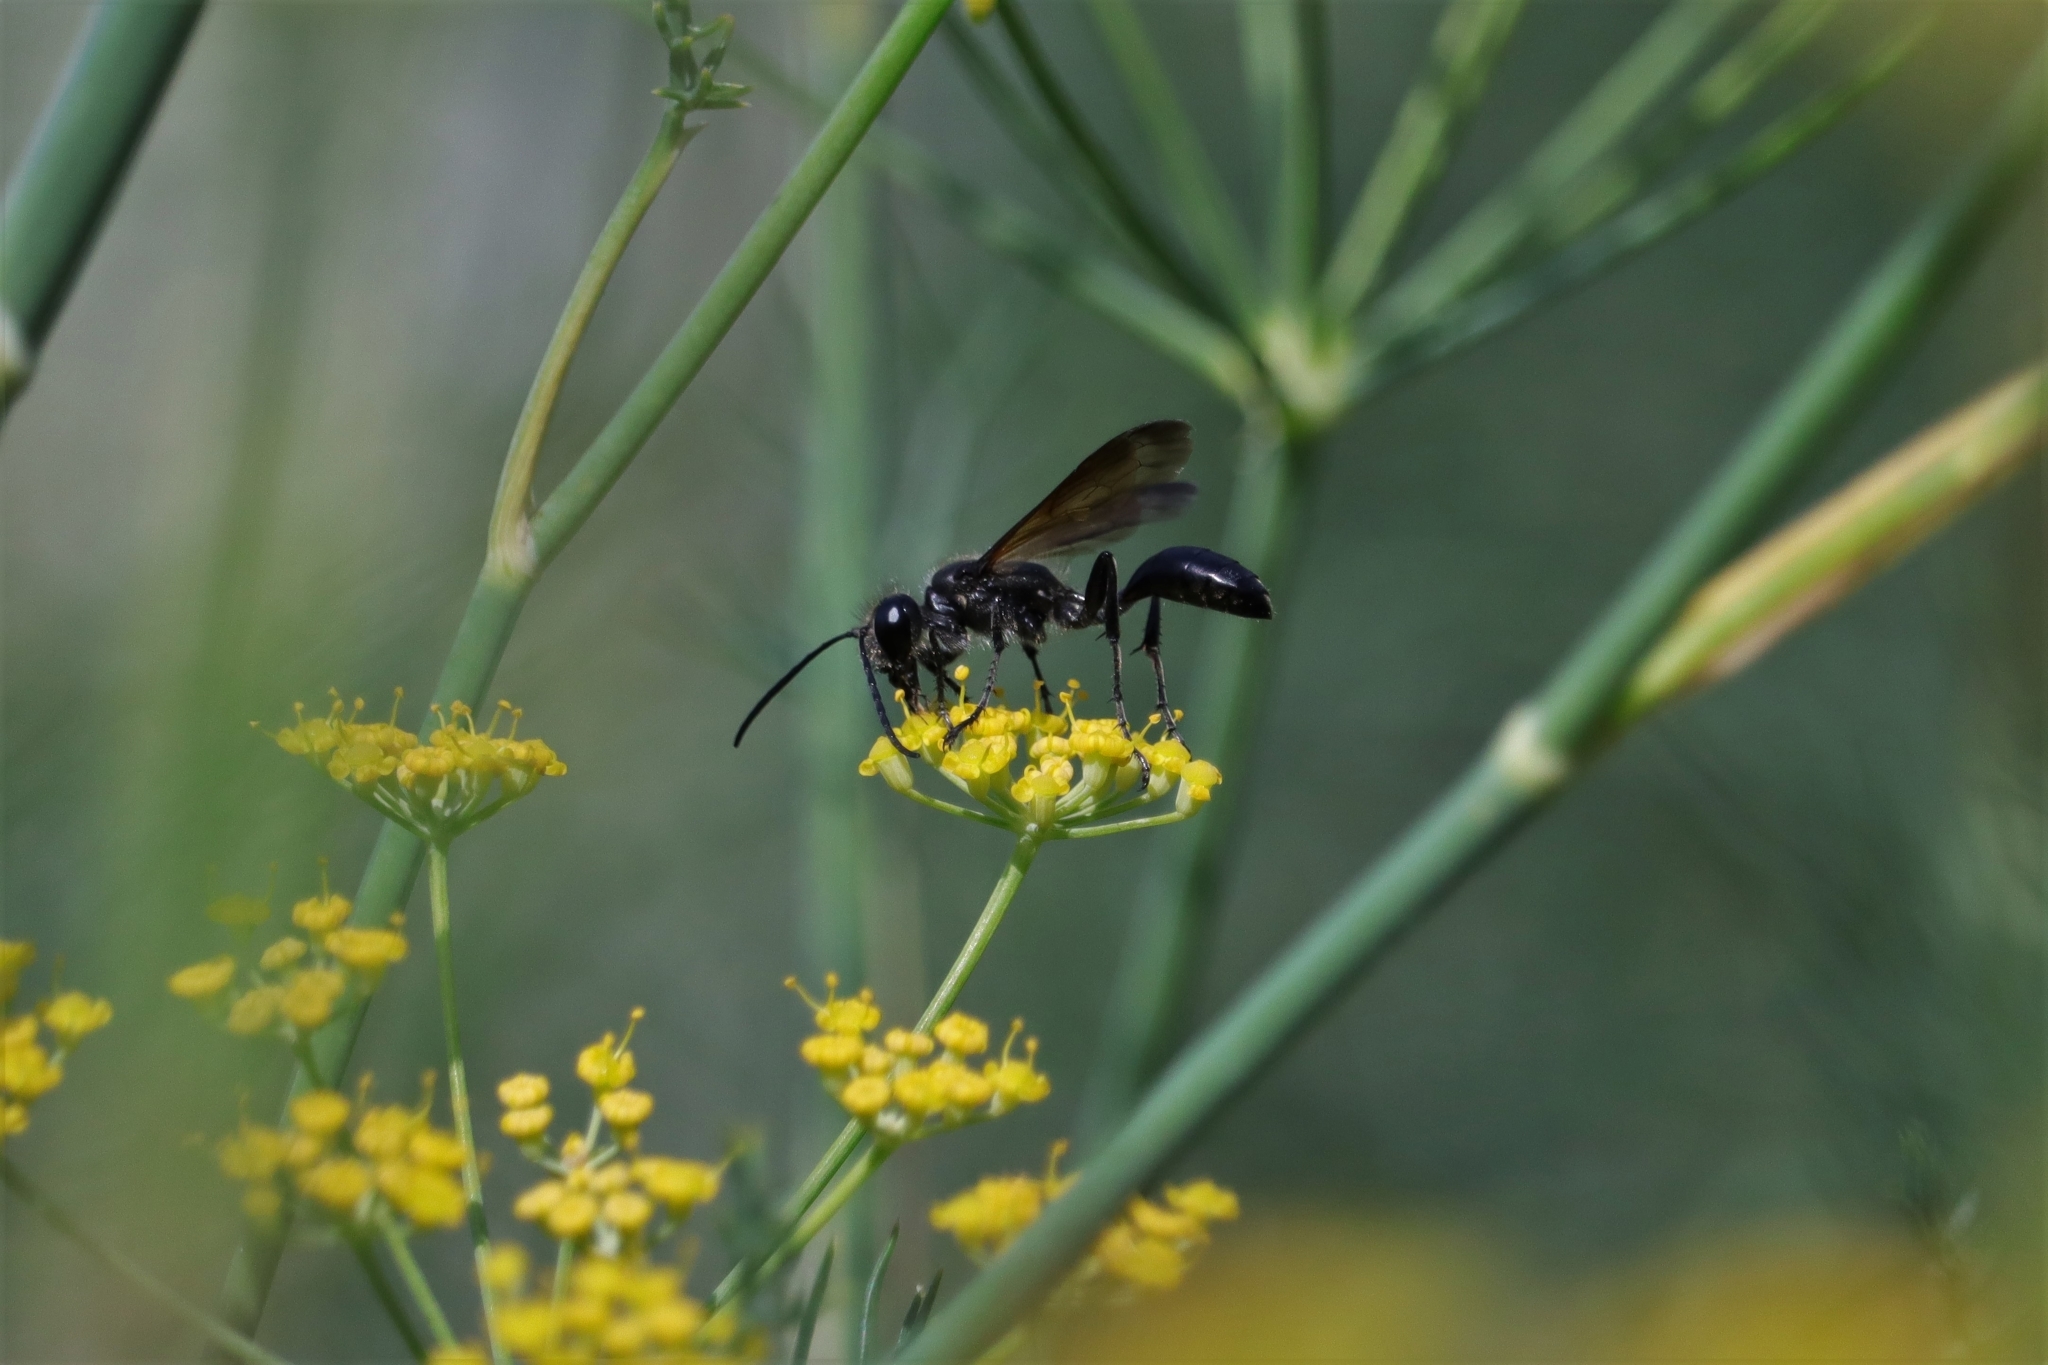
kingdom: Animalia
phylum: Arthropoda
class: Insecta
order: Hymenoptera
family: Sphecidae
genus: Isodontia
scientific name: Isodontia mexicana
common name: Mud dauber
